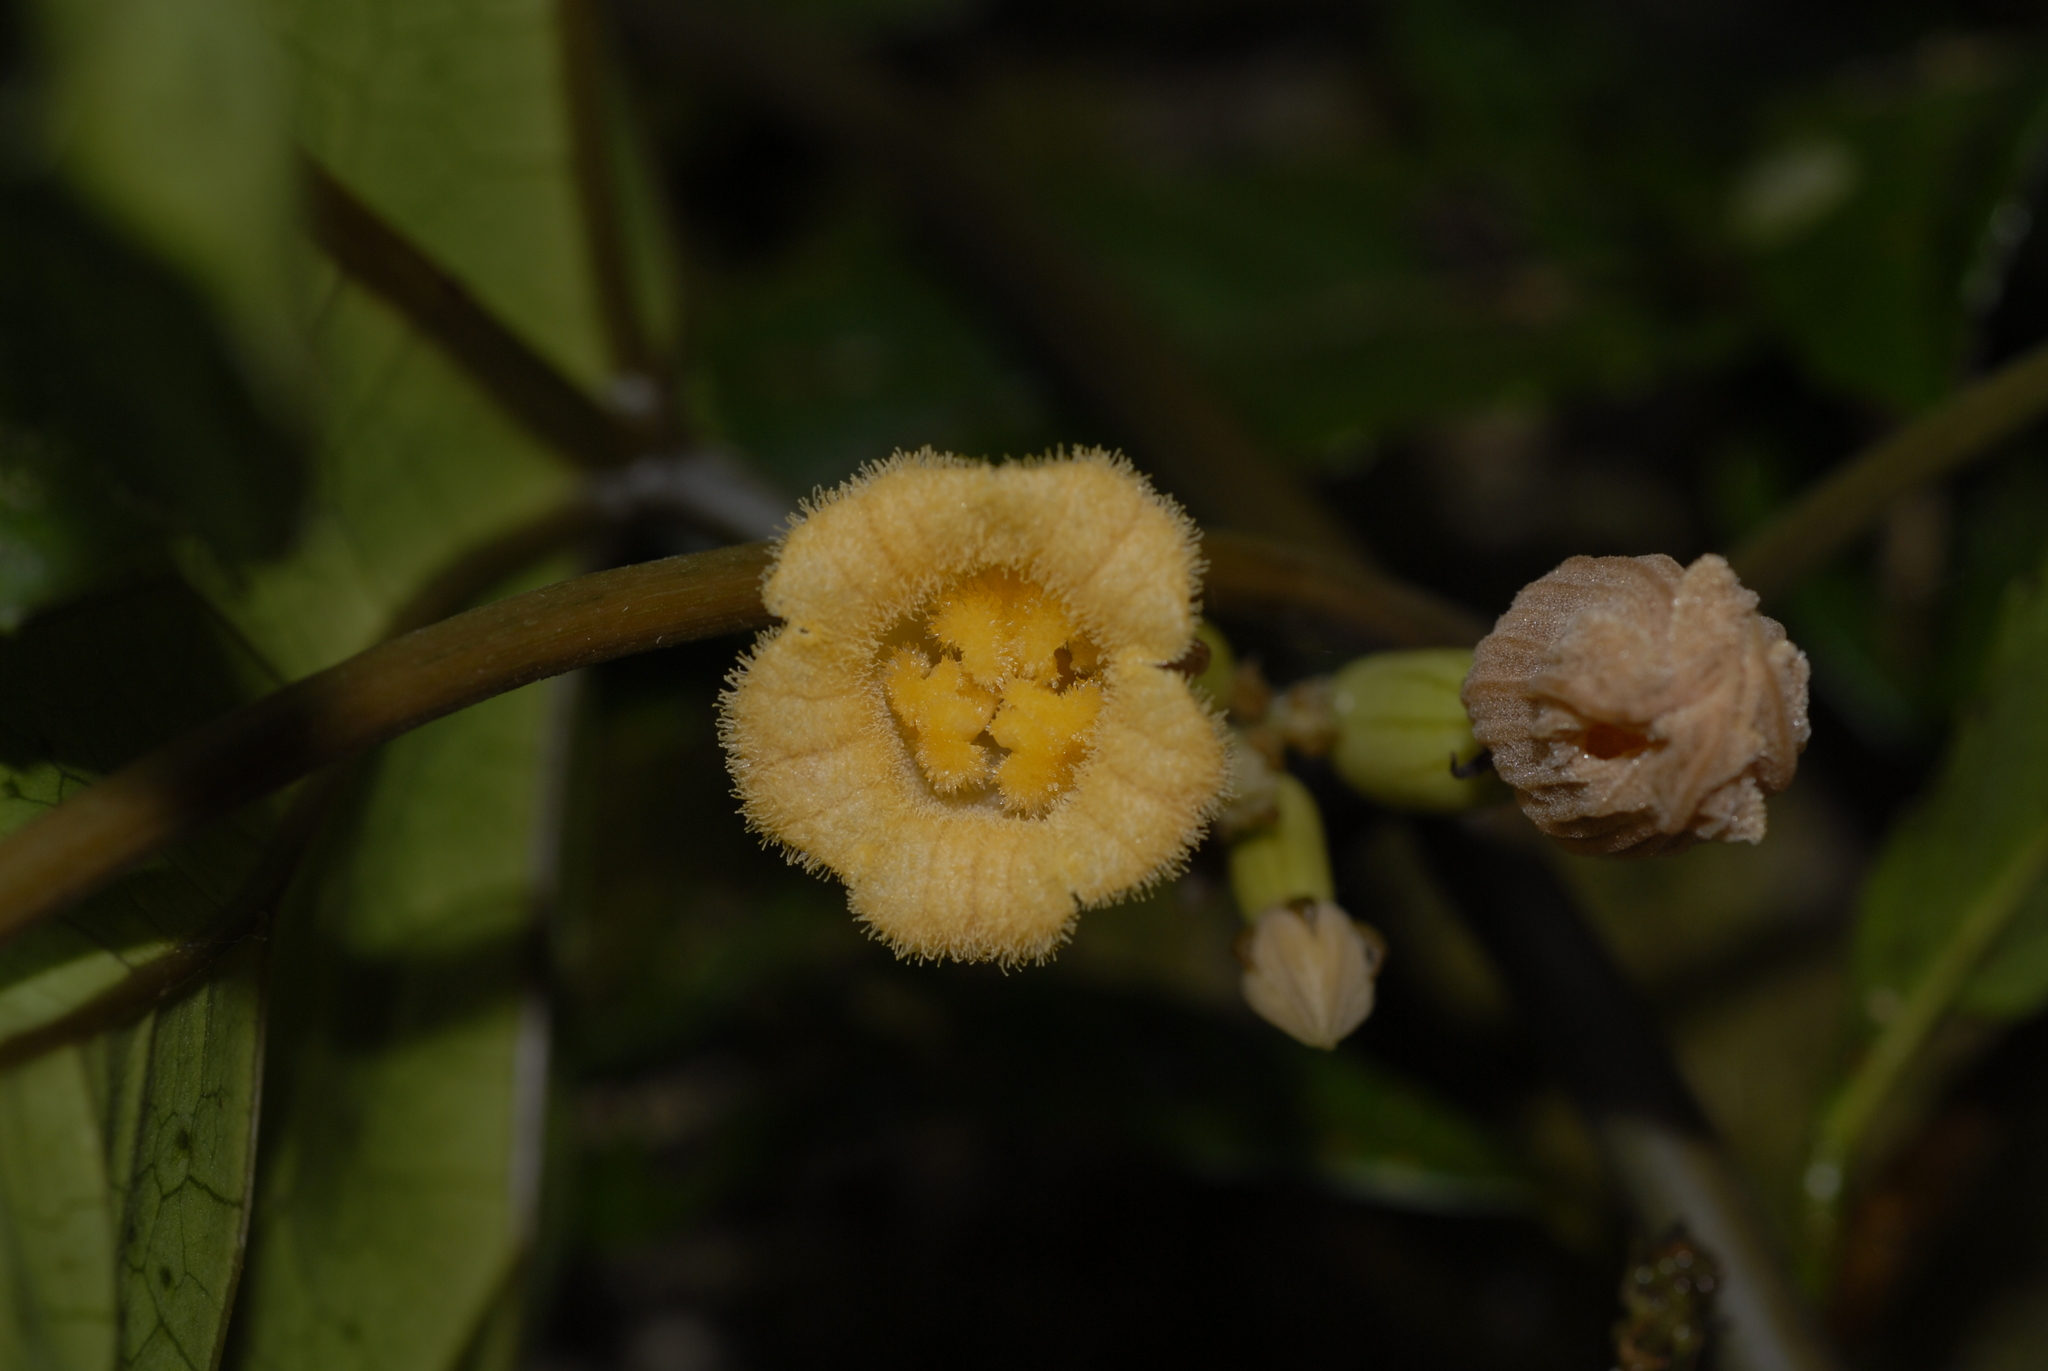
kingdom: Plantae
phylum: Tracheophyta
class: Magnoliopsida
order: Cucurbitales
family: Cucurbitaceae
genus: Coccinia
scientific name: Coccinia barteri
